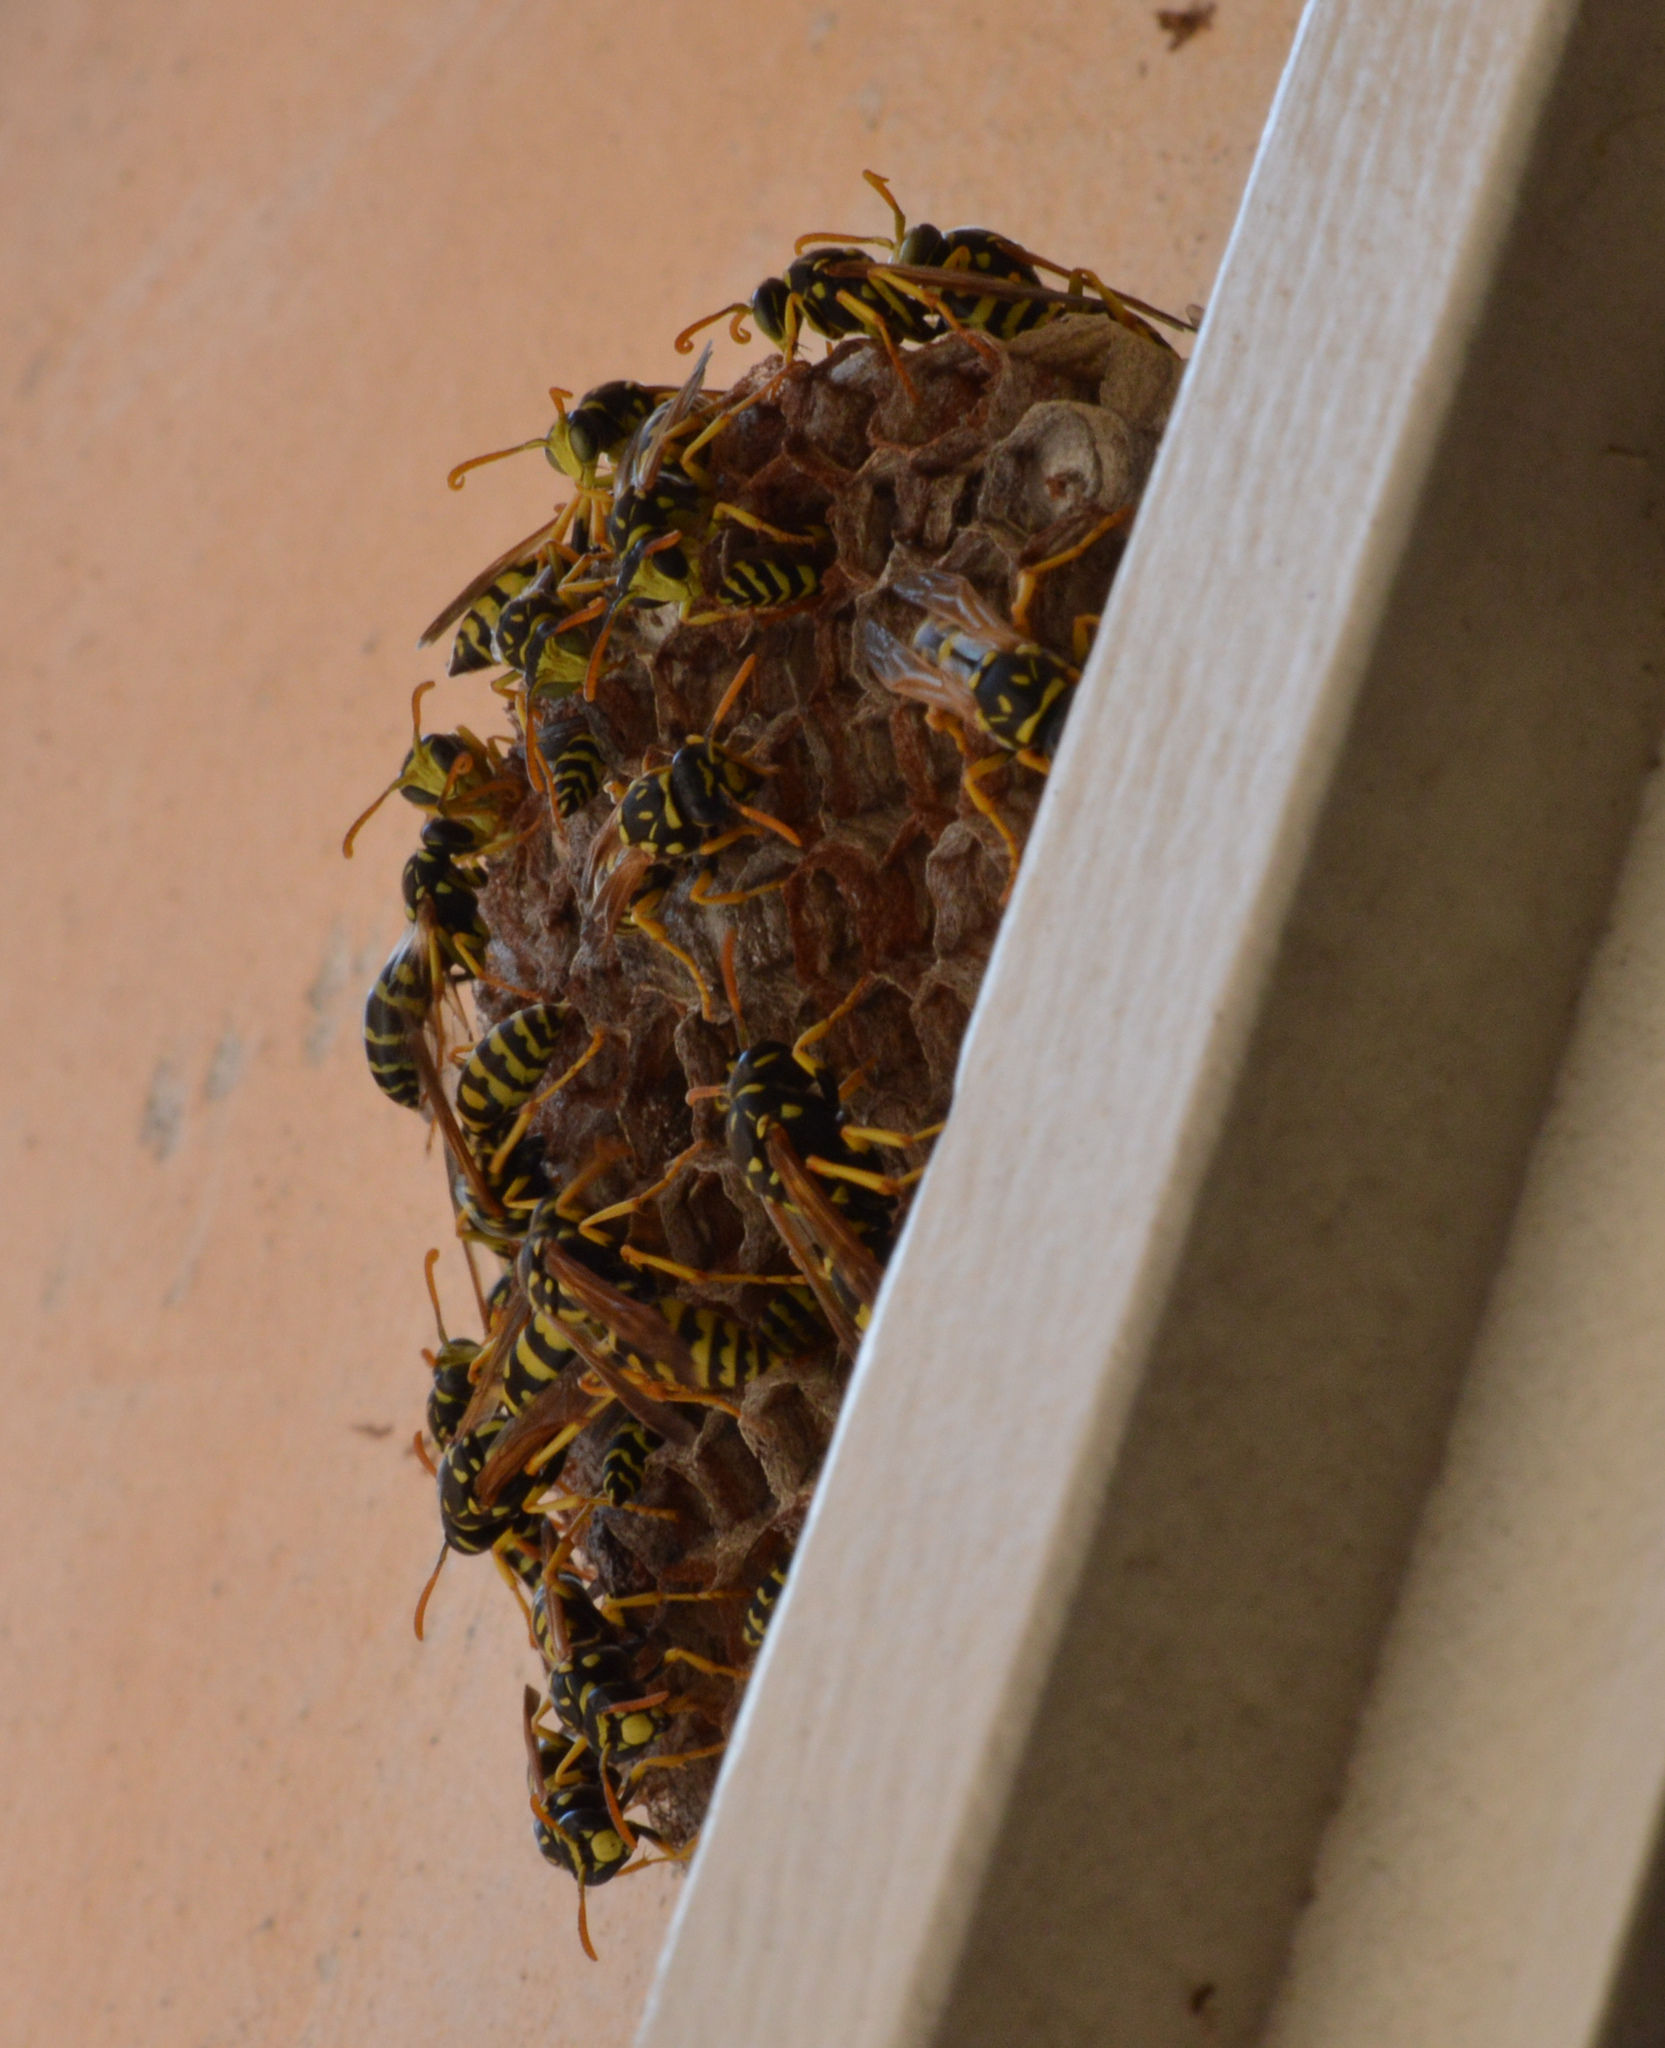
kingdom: Animalia
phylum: Arthropoda
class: Insecta
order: Hymenoptera
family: Eumenidae
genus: Polistes
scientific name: Polistes gallicus
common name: Paper wasp
